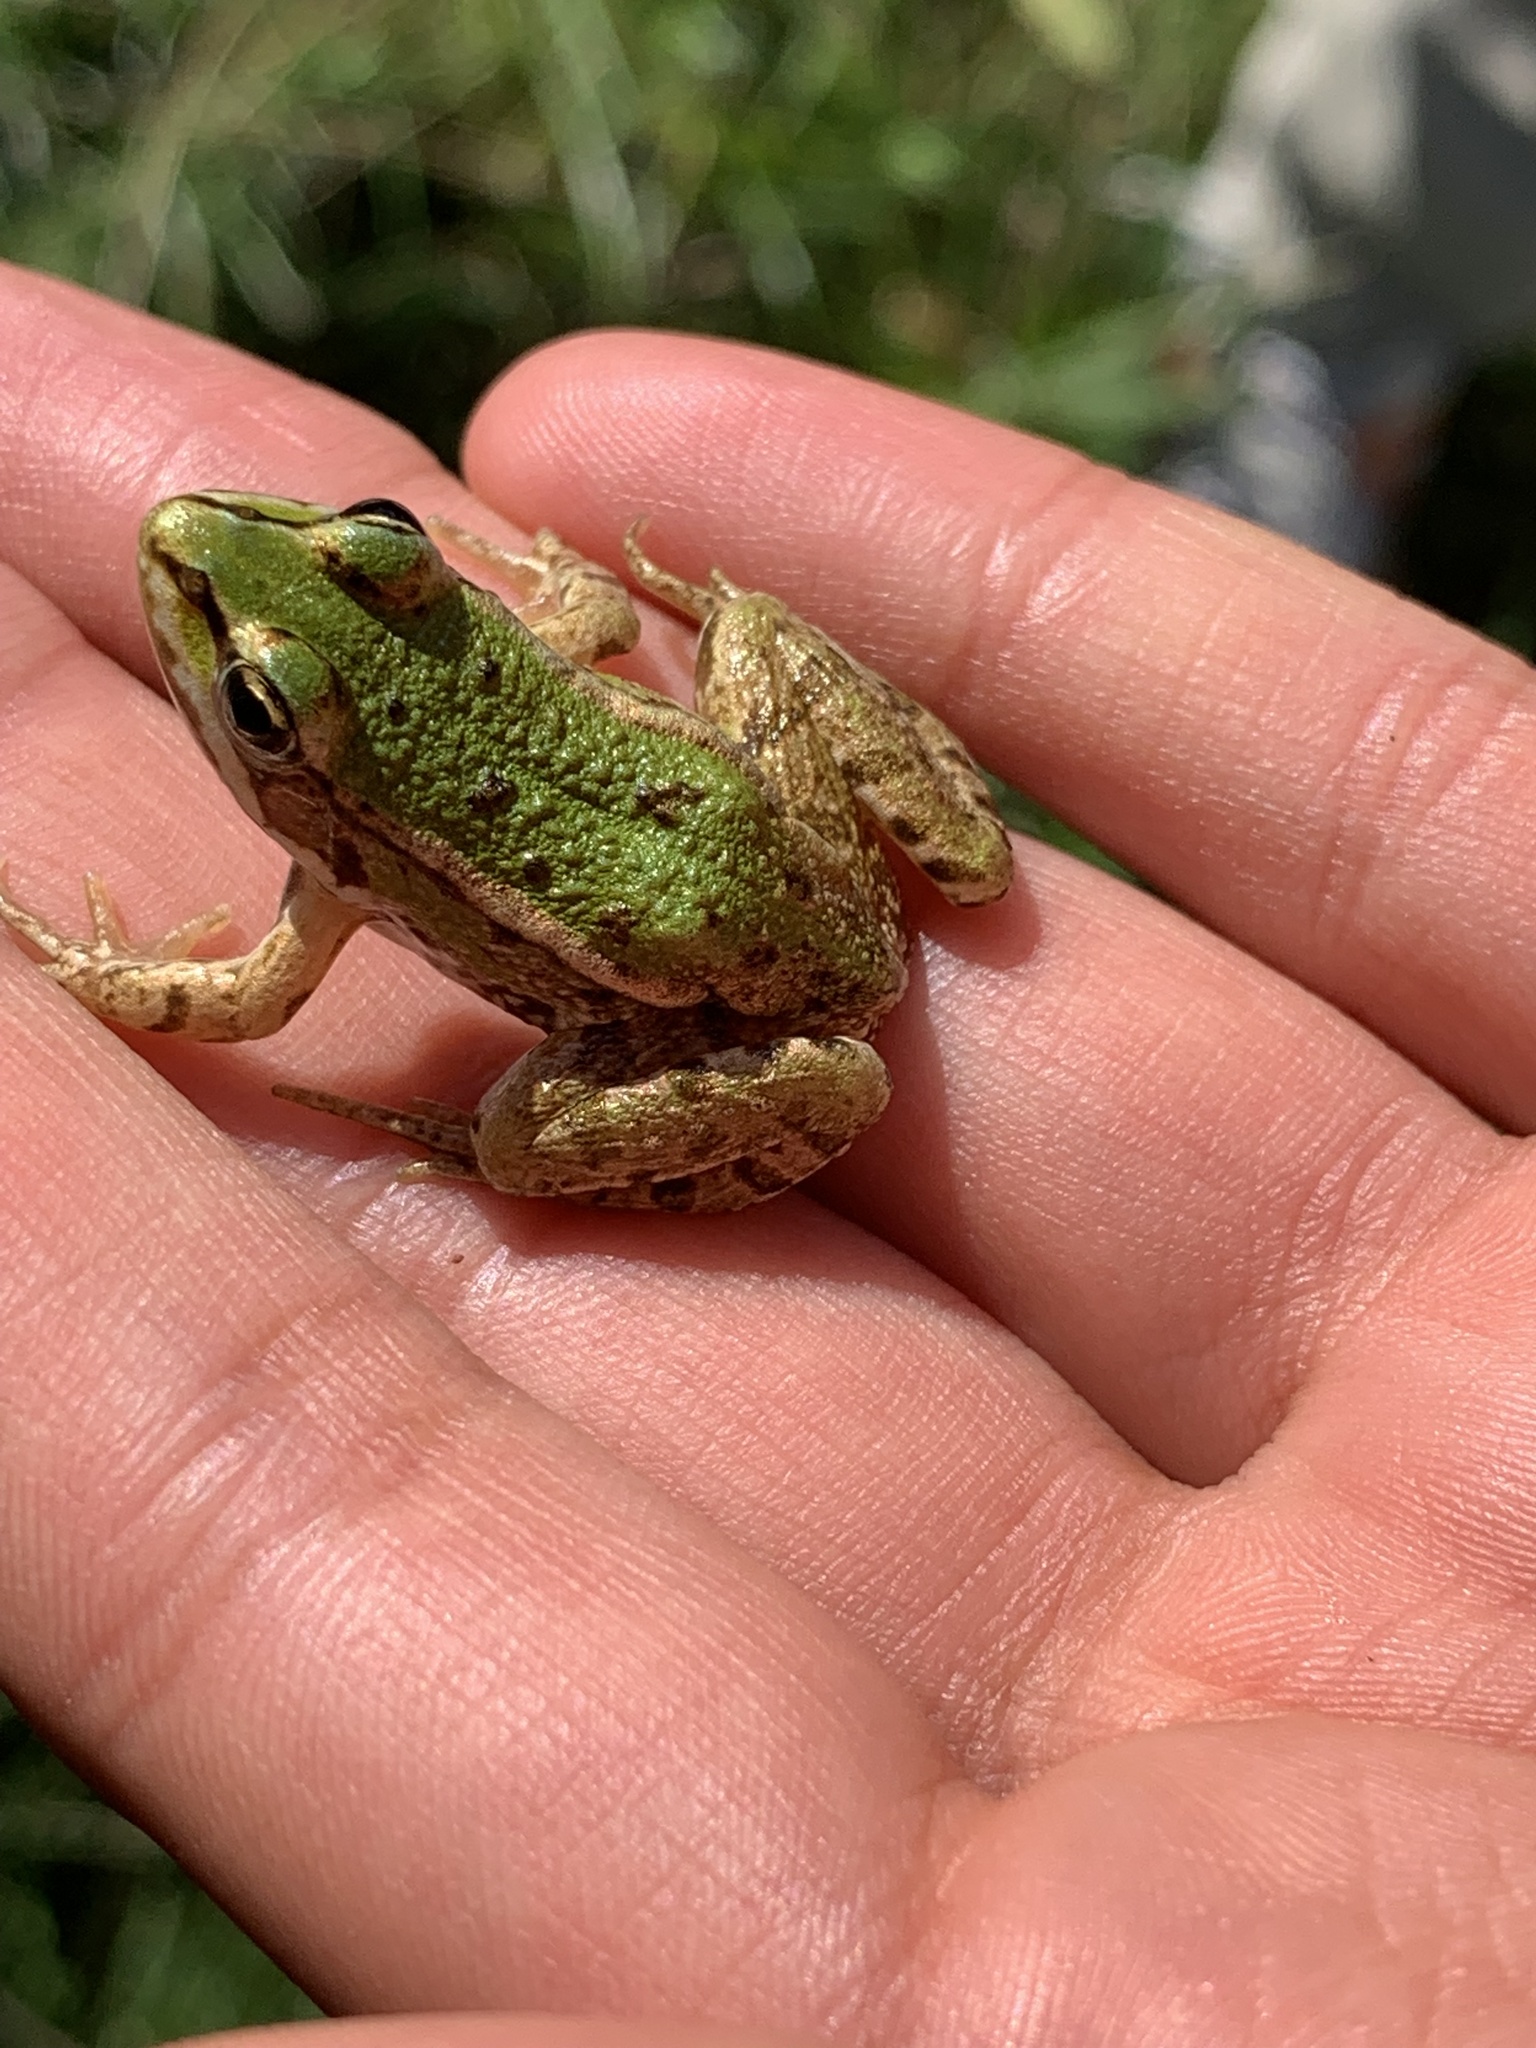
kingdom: Animalia
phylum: Chordata
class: Amphibia
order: Anura
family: Ranidae
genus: Pelophylax
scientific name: Pelophylax lessonae
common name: Pool frog
